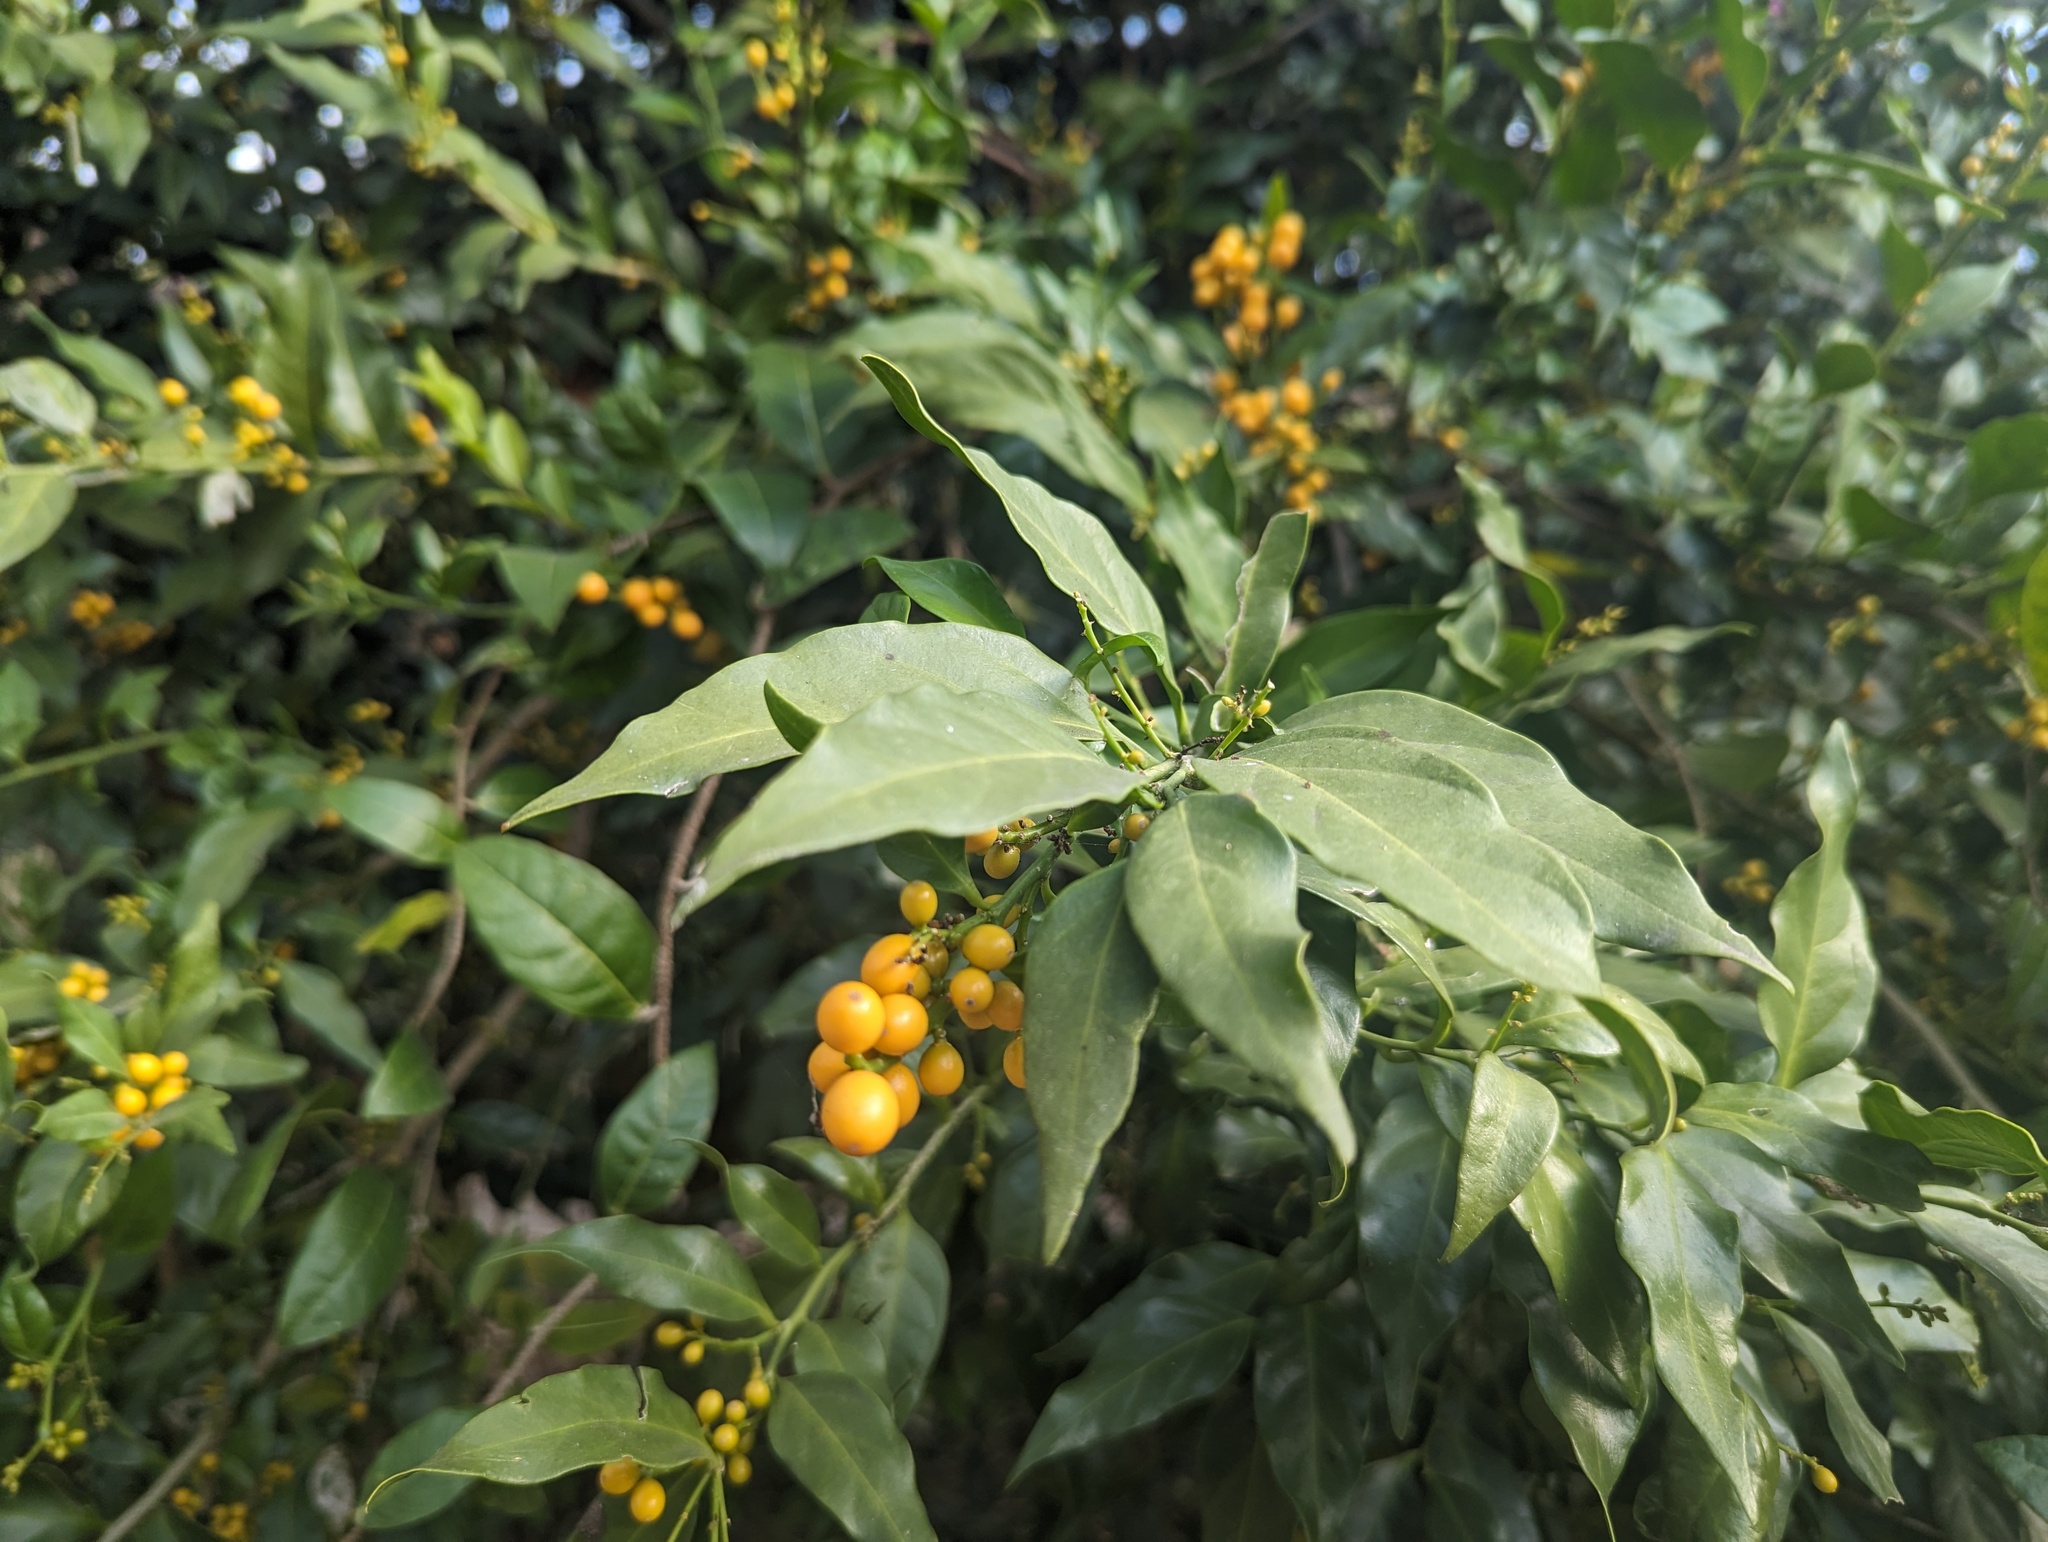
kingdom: Plantae
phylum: Tracheophyta
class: Magnoliopsida
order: Santalales
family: Opiliaceae
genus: Champereia
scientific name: Champereia manillana
